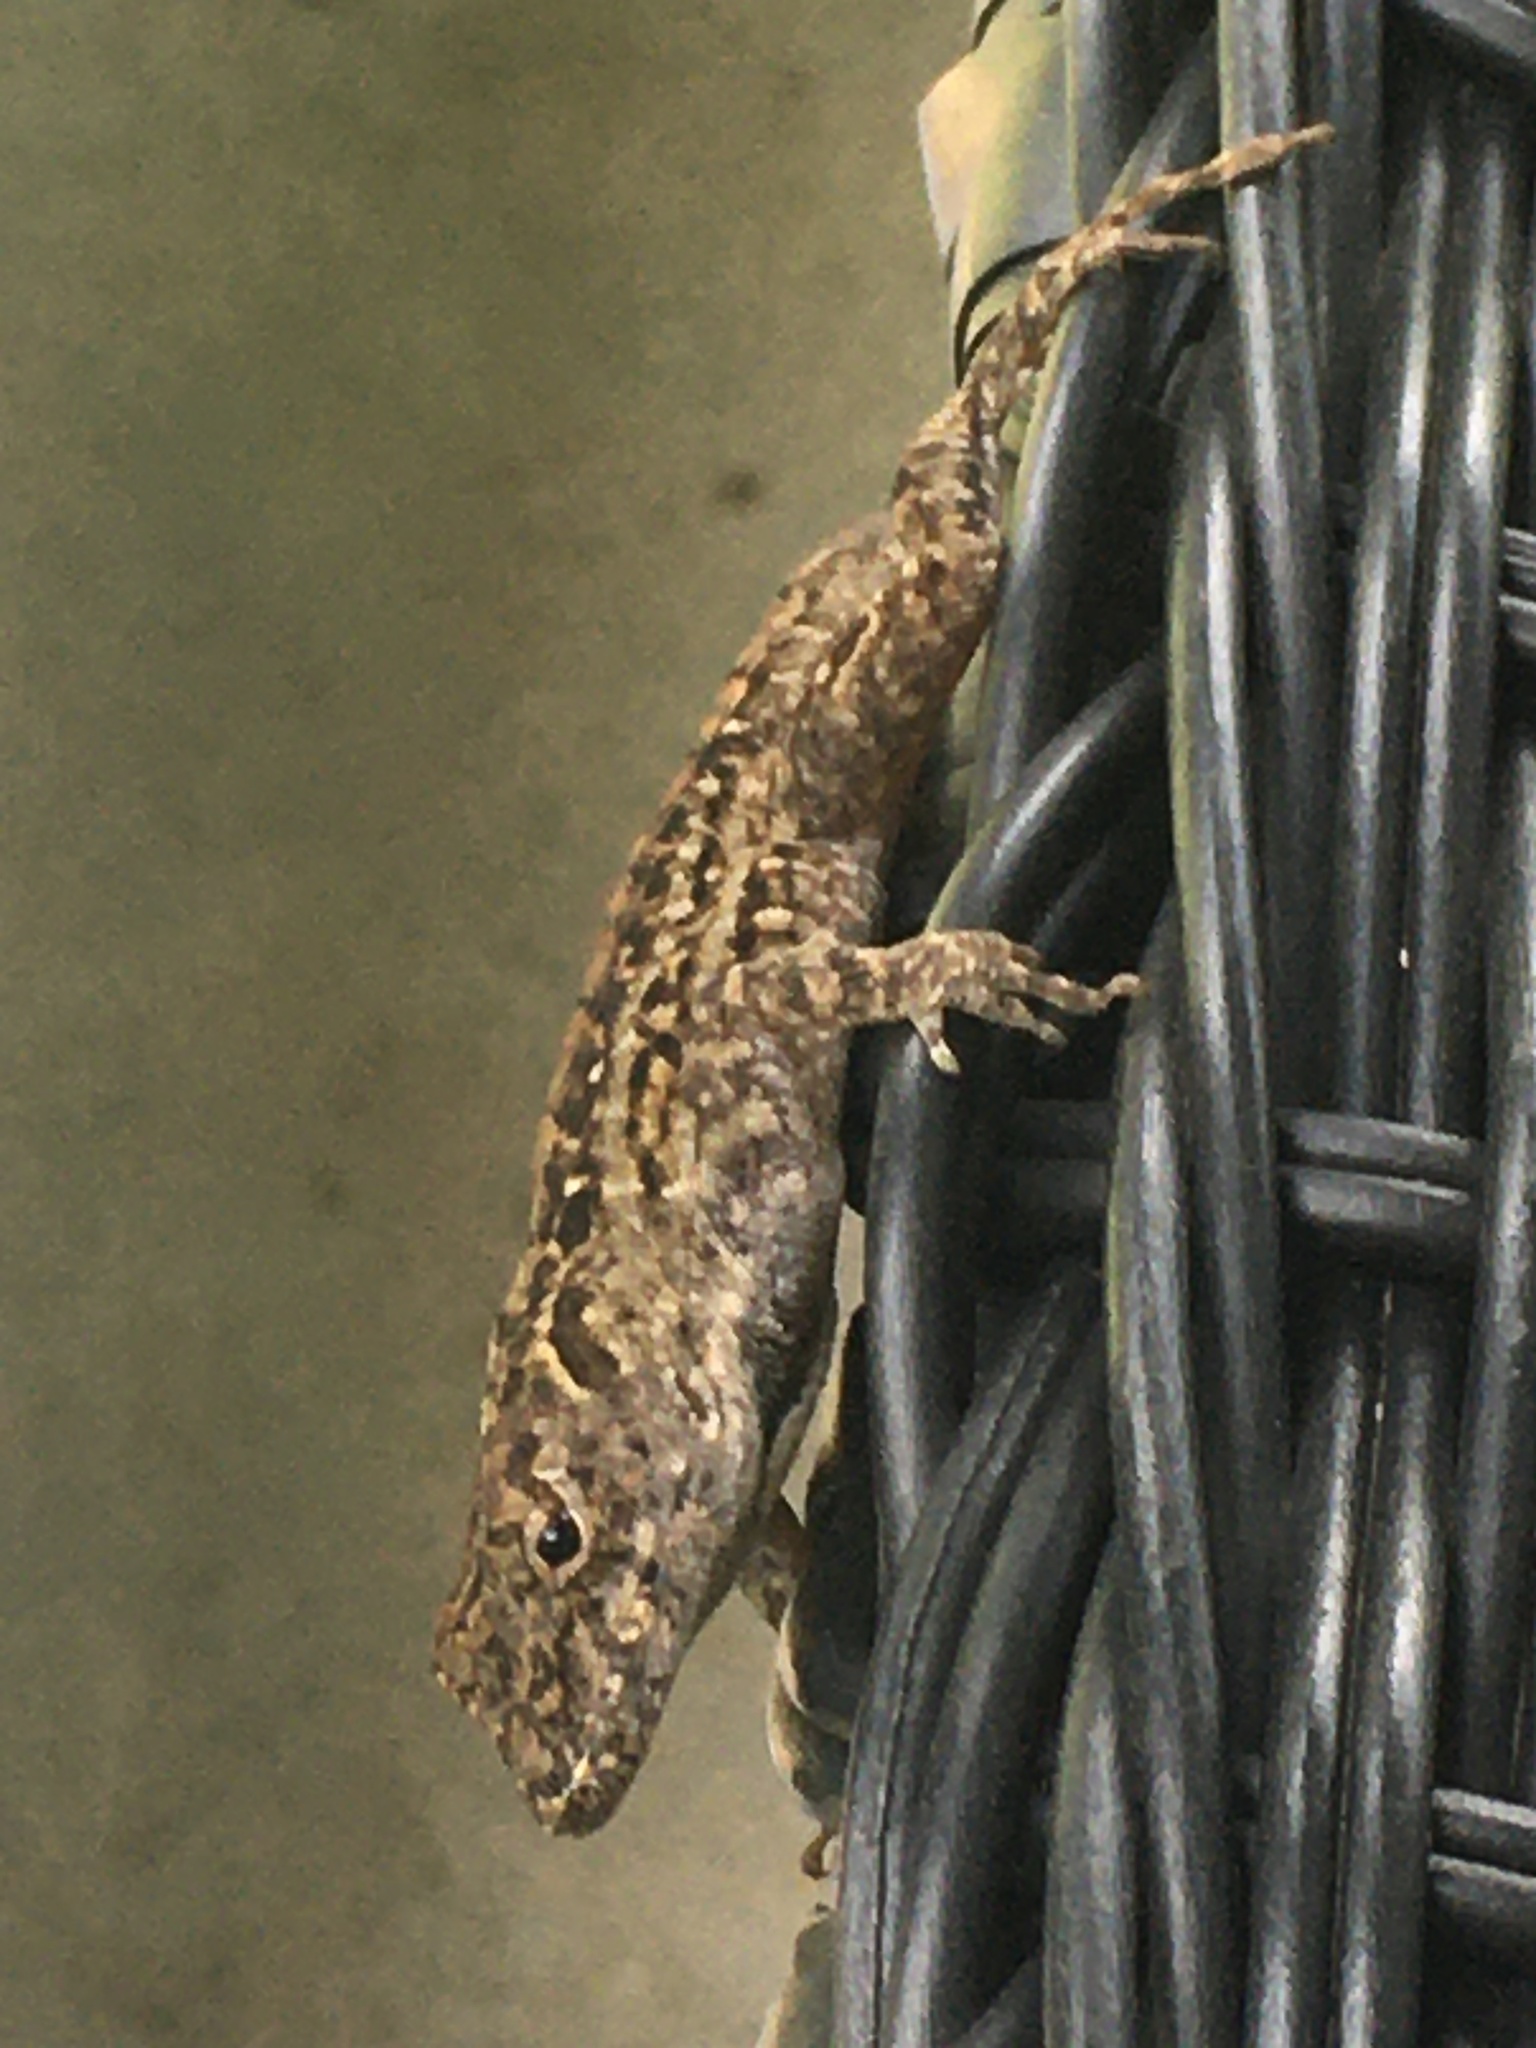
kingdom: Animalia
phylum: Chordata
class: Squamata
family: Dactyloidae
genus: Anolis
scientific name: Anolis sagrei
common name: Brown anole
